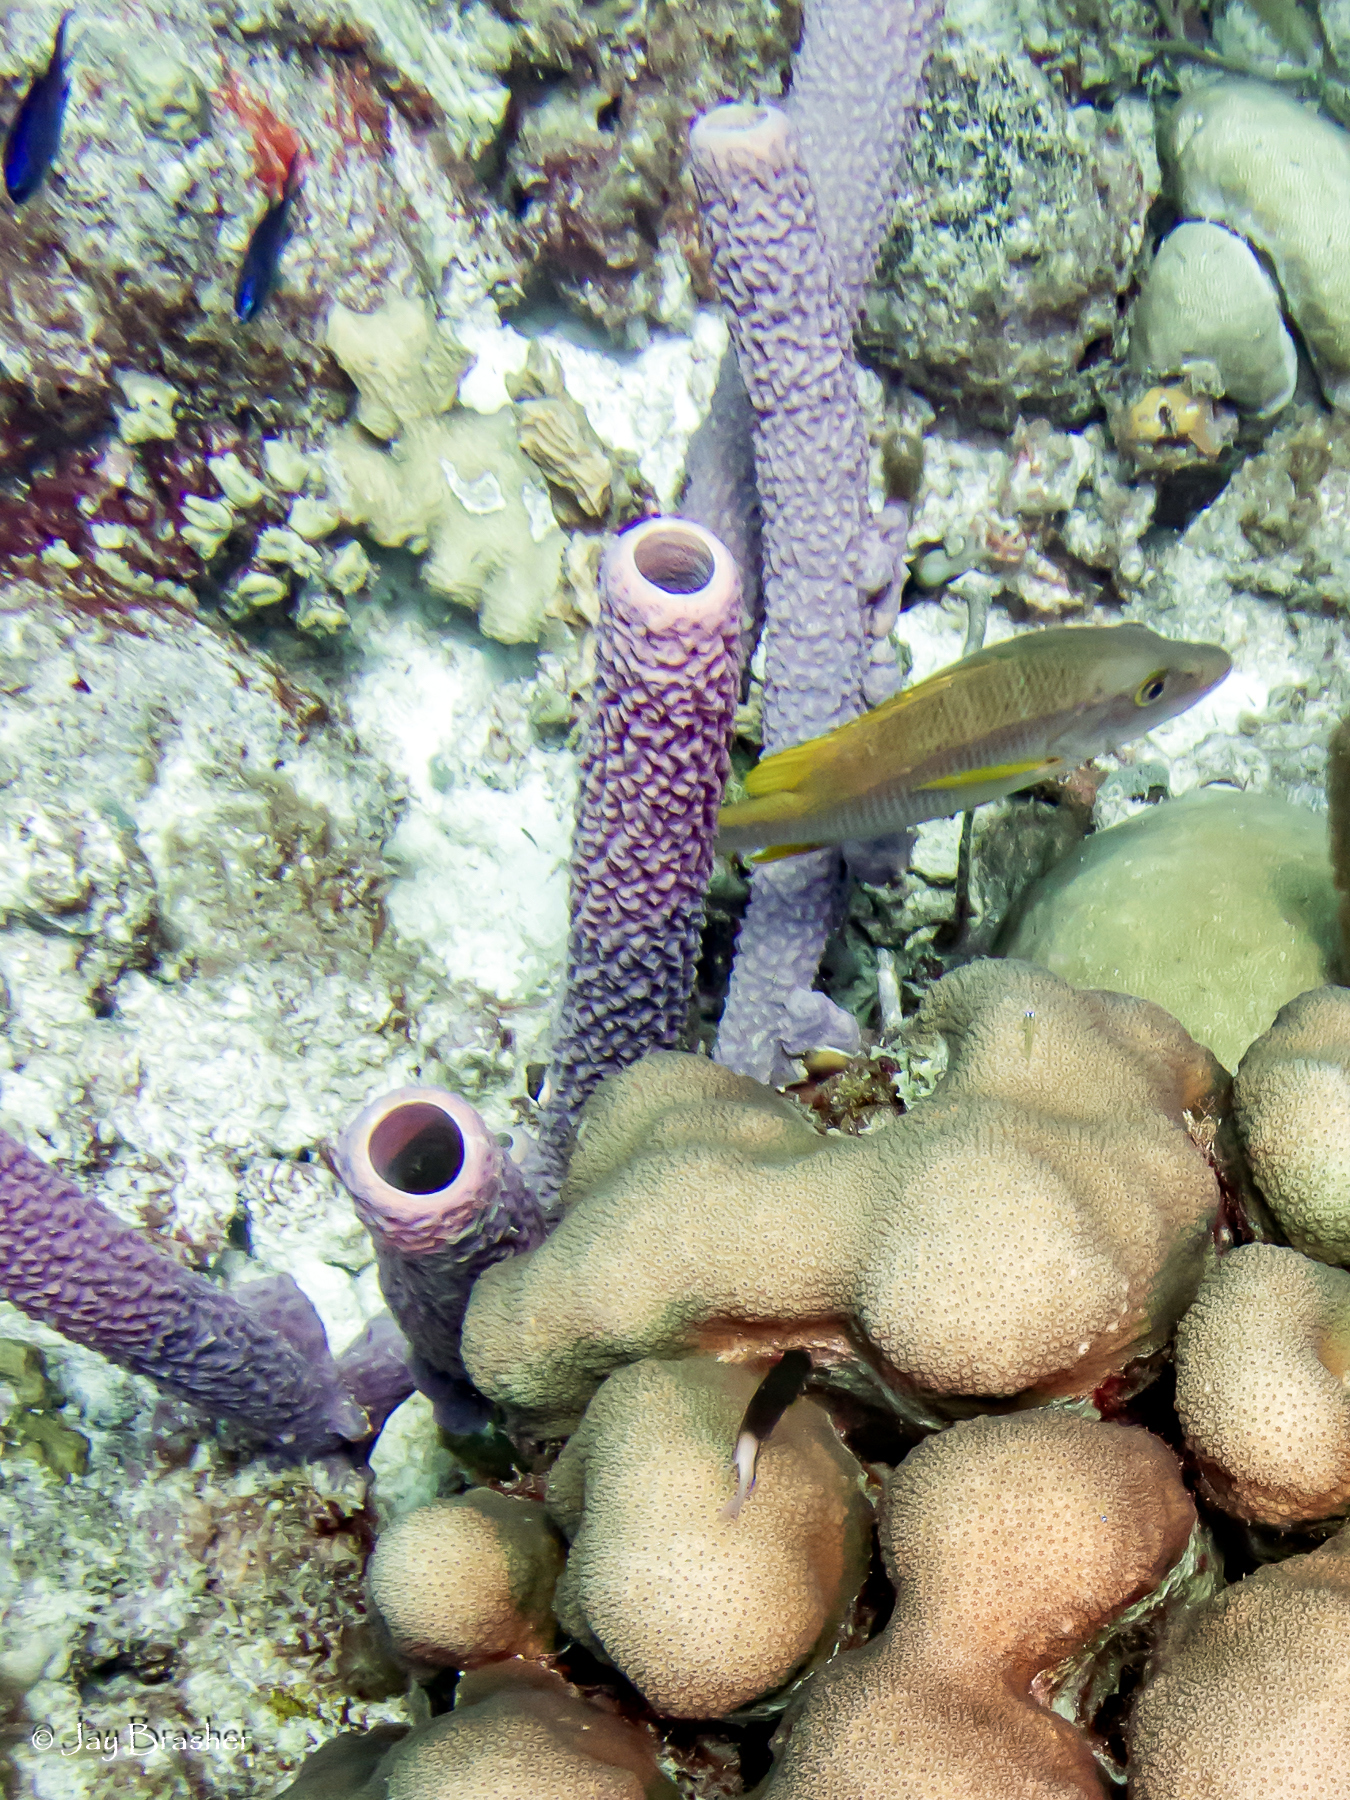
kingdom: Animalia
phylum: Chordata
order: Perciformes
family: Pomacentridae
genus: Stegastes
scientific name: Stegastes partitus
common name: Bicolor damselfish
